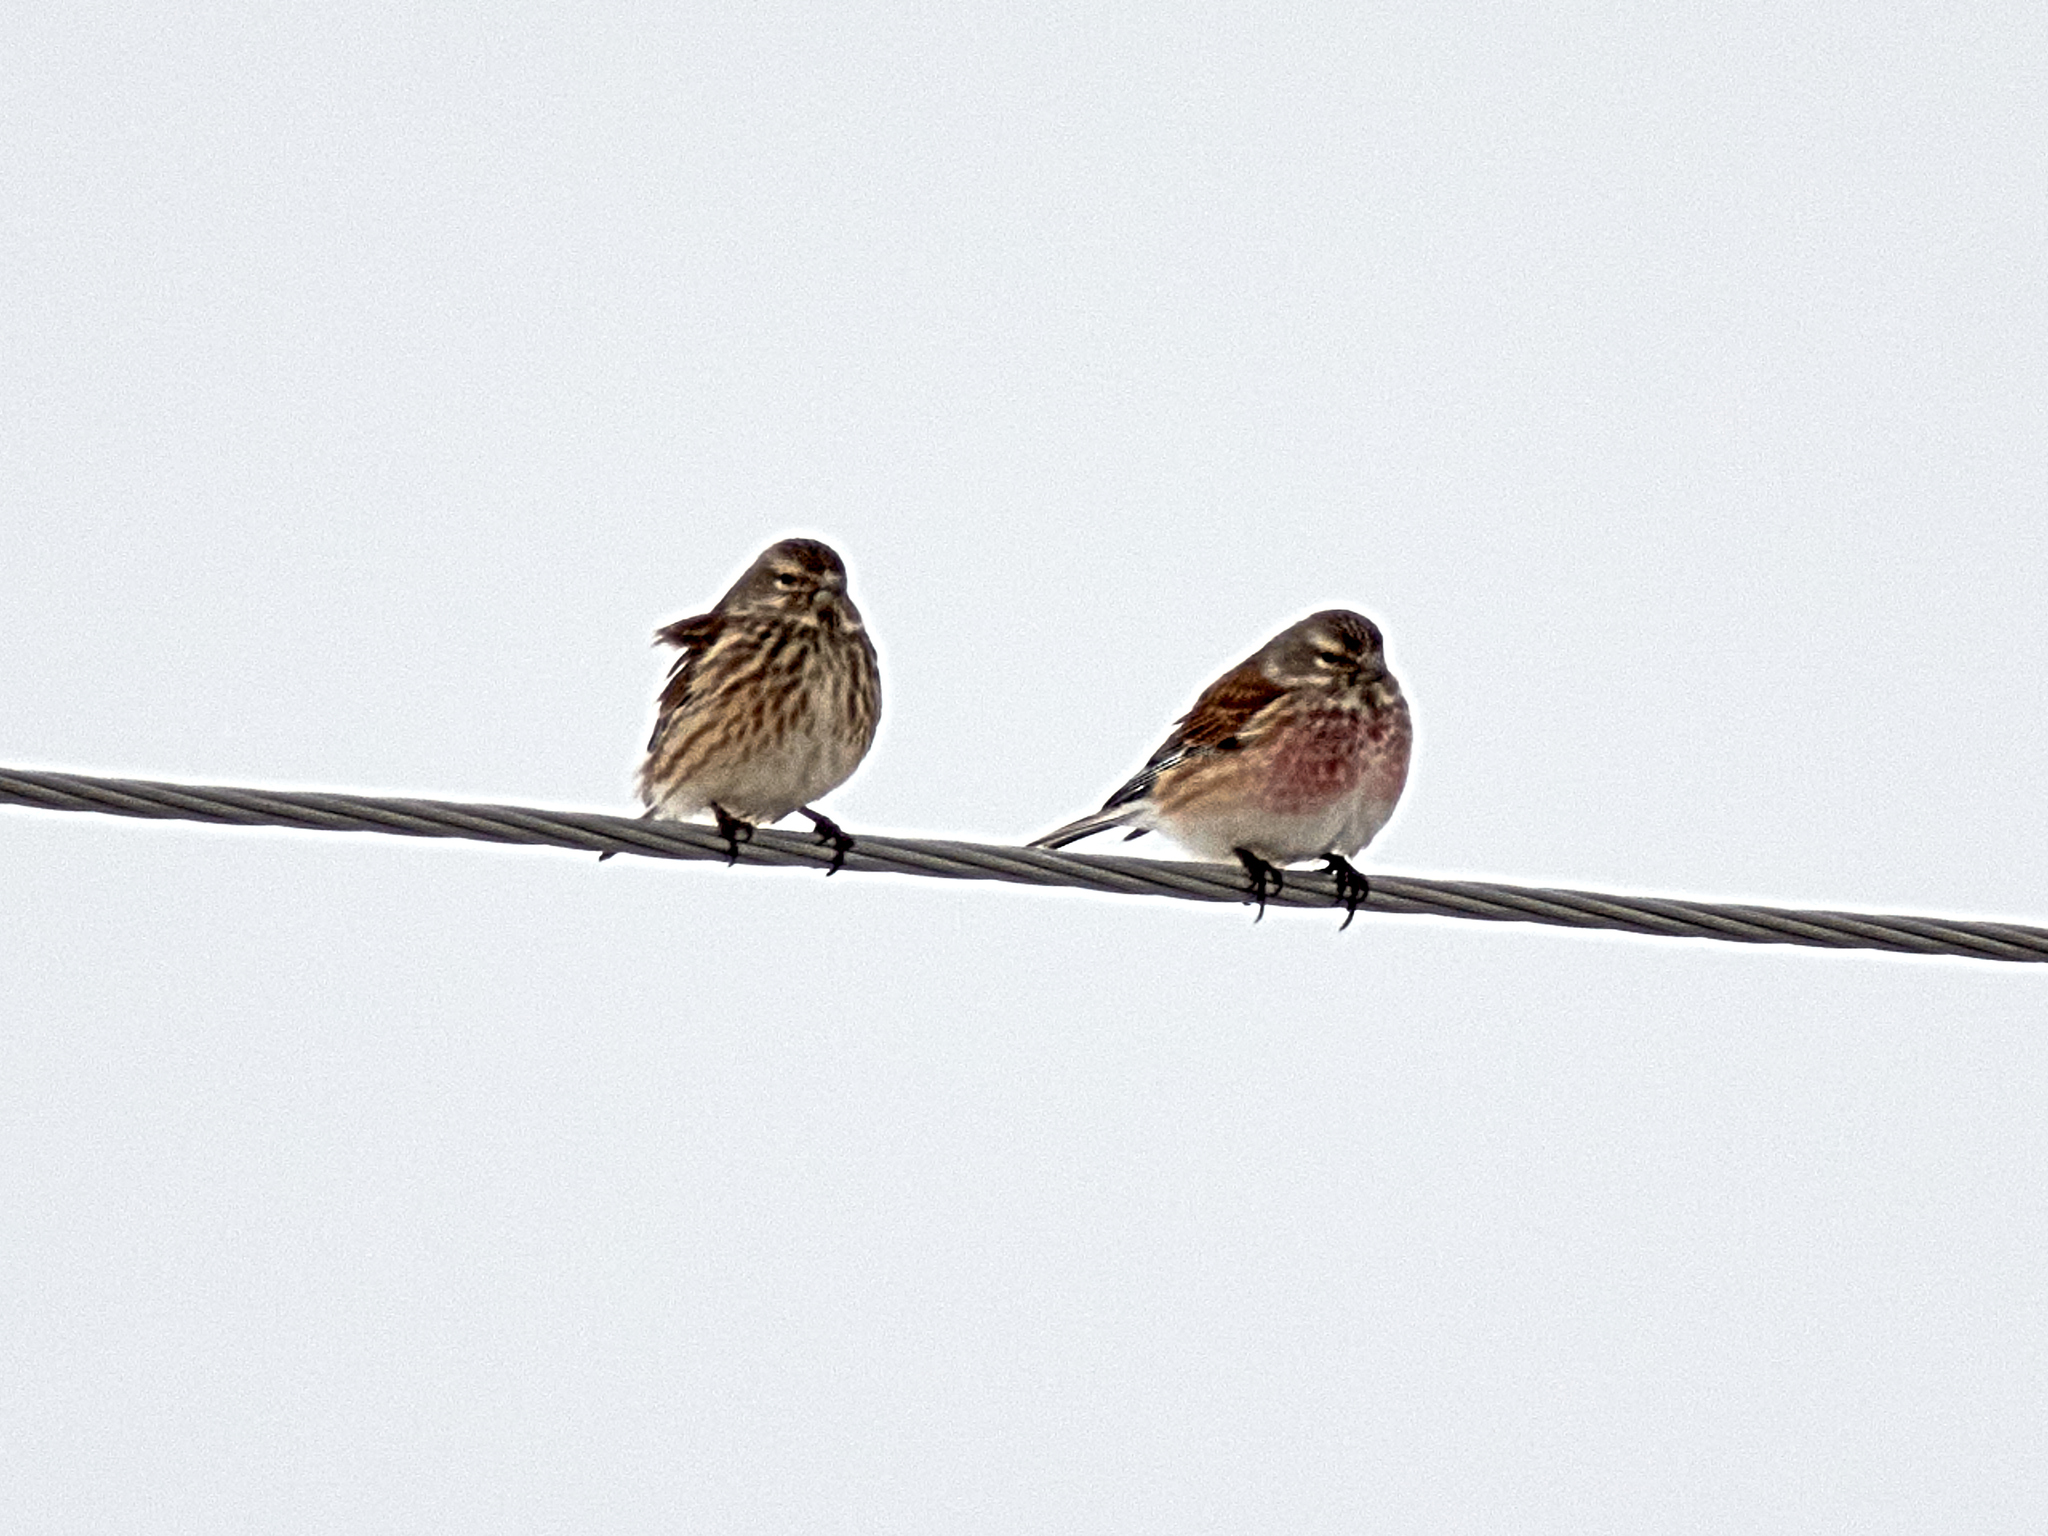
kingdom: Animalia
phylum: Chordata
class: Aves
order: Passeriformes
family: Fringillidae
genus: Linaria
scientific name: Linaria cannabina
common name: Common linnet
